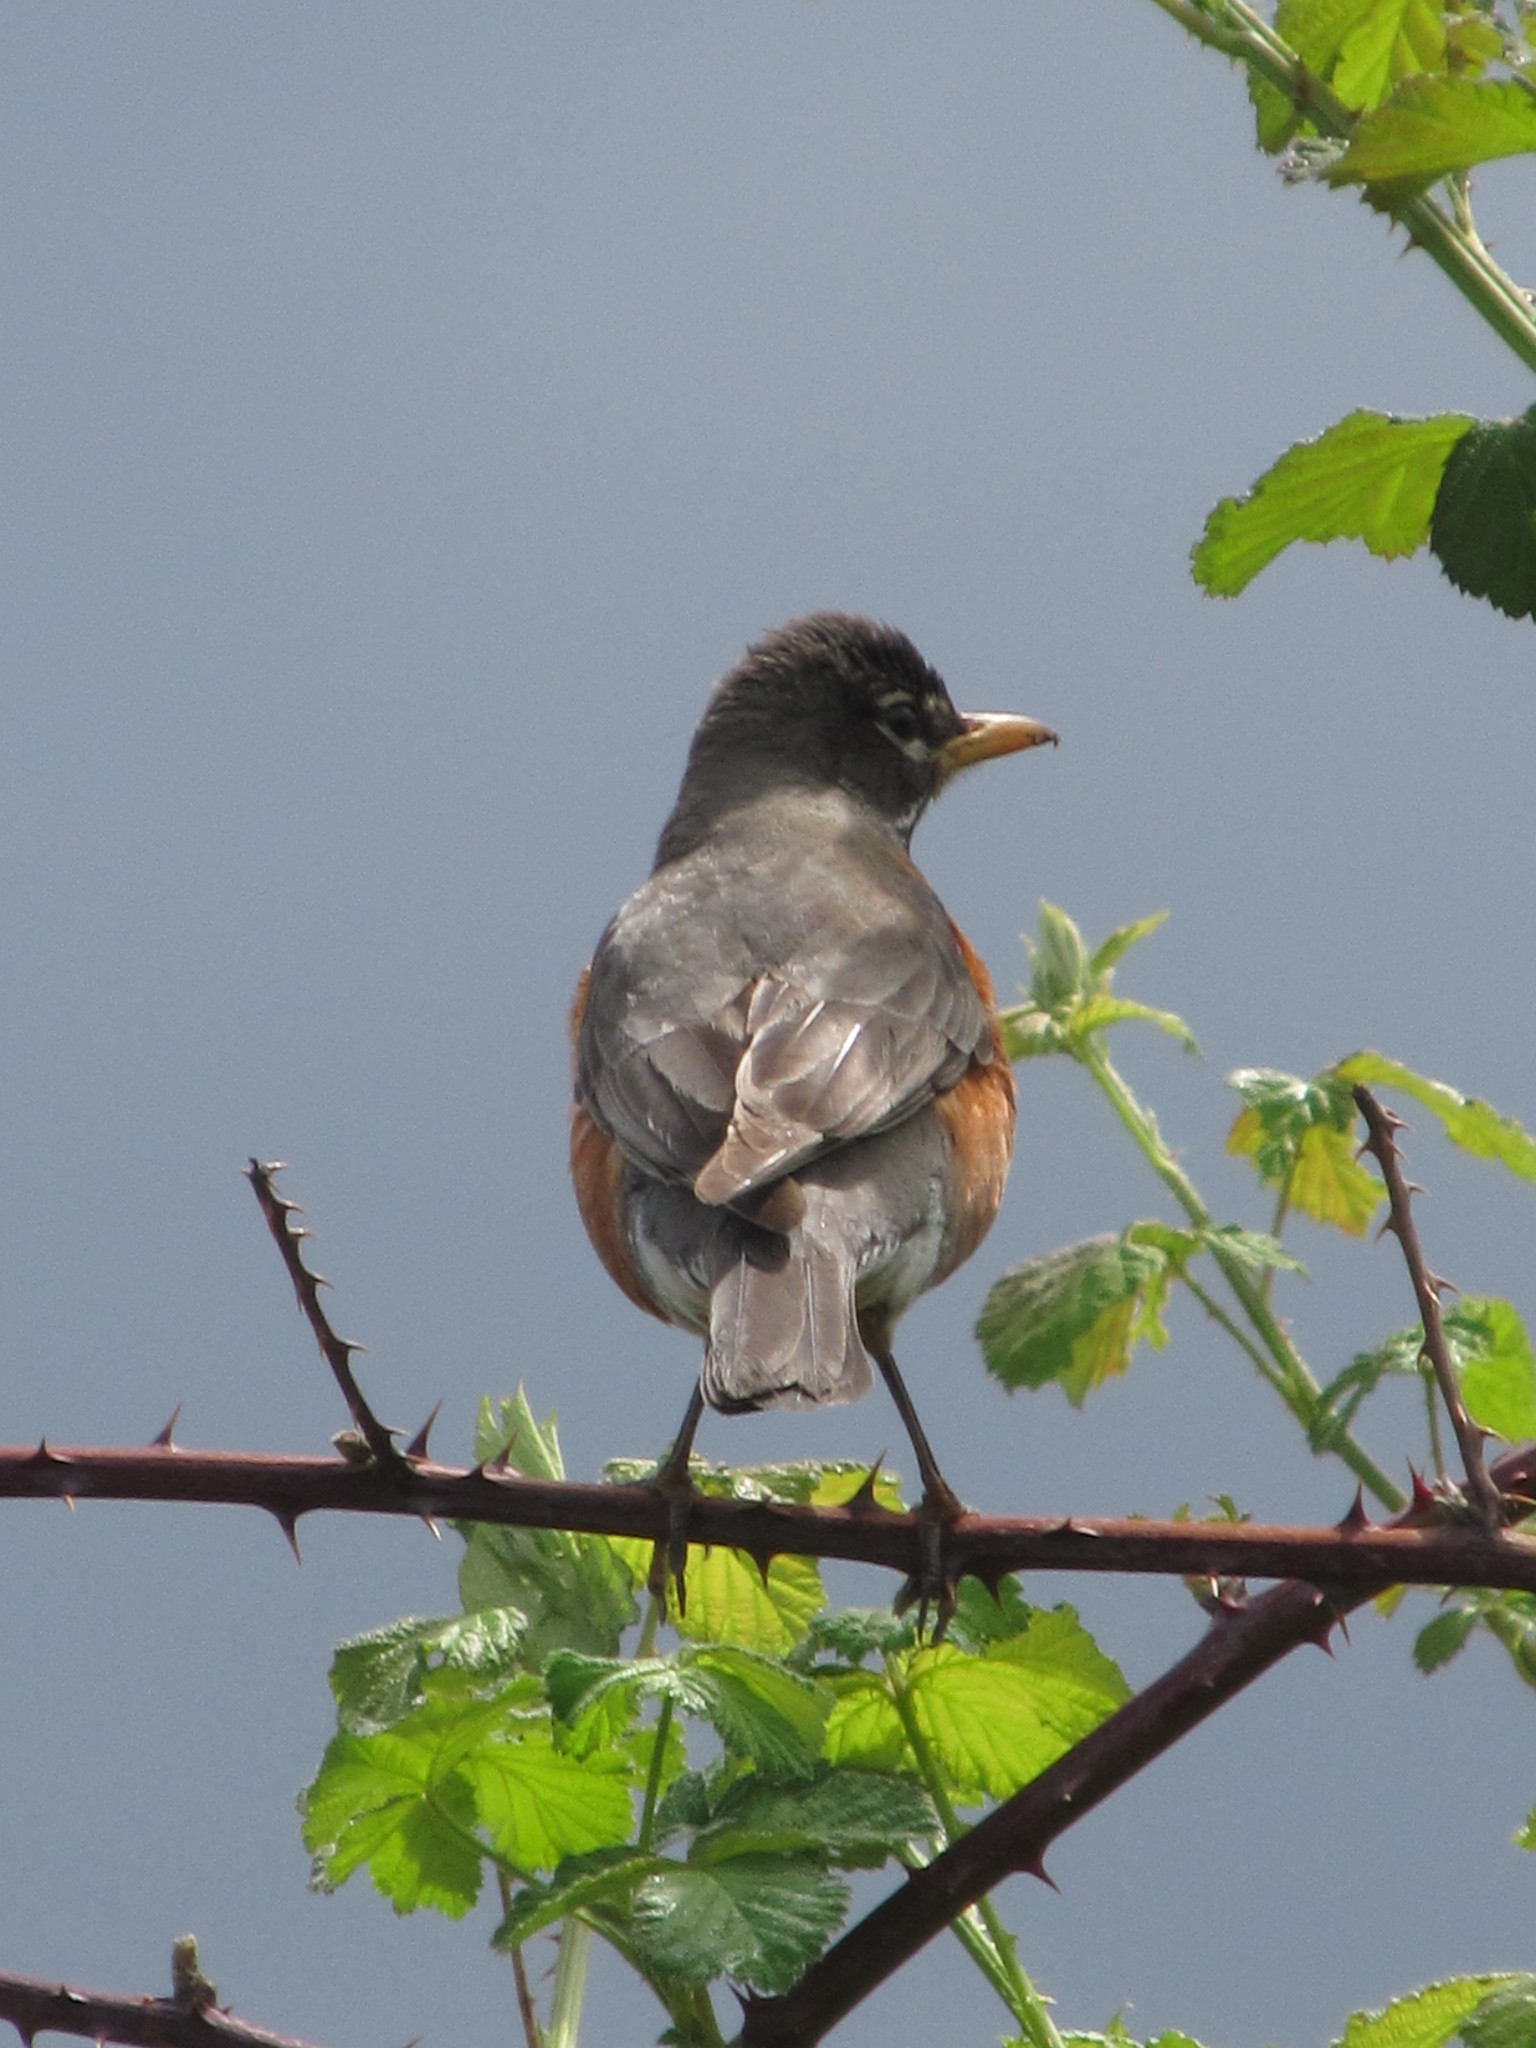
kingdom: Animalia
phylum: Chordata
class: Aves
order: Passeriformes
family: Turdidae
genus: Turdus
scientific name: Turdus migratorius
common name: American robin
